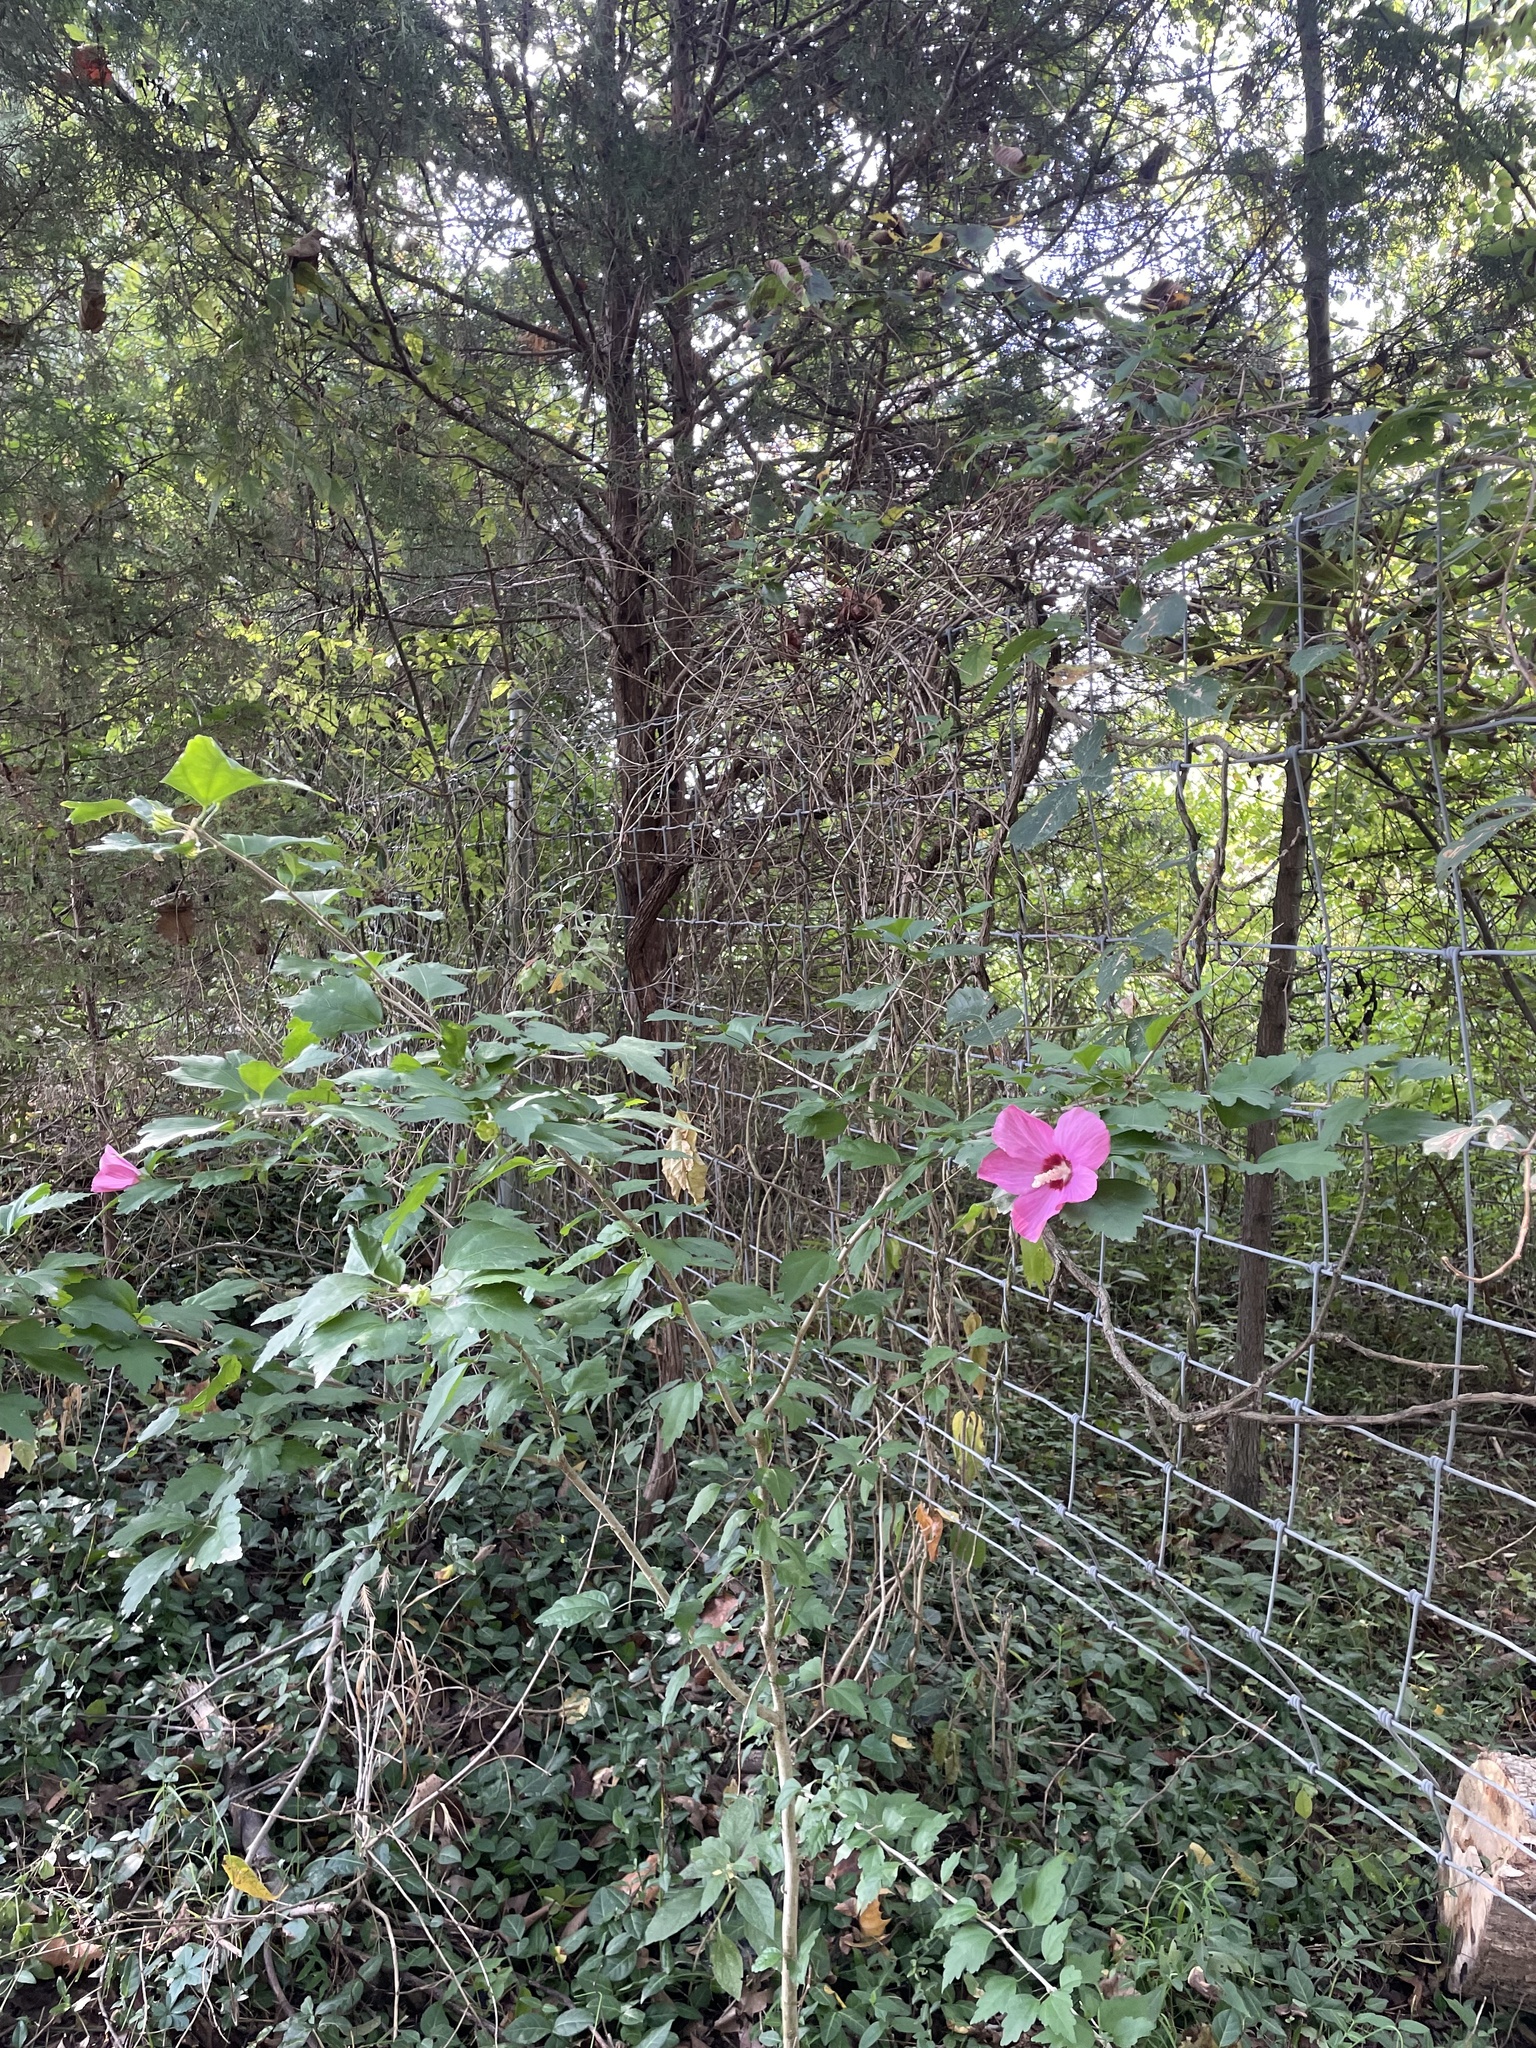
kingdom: Plantae
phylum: Tracheophyta
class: Magnoliopsida
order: Malvales
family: Malvaceae
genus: Hibiscus
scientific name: Hibiscus syriacus
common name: Syrian ketmia
